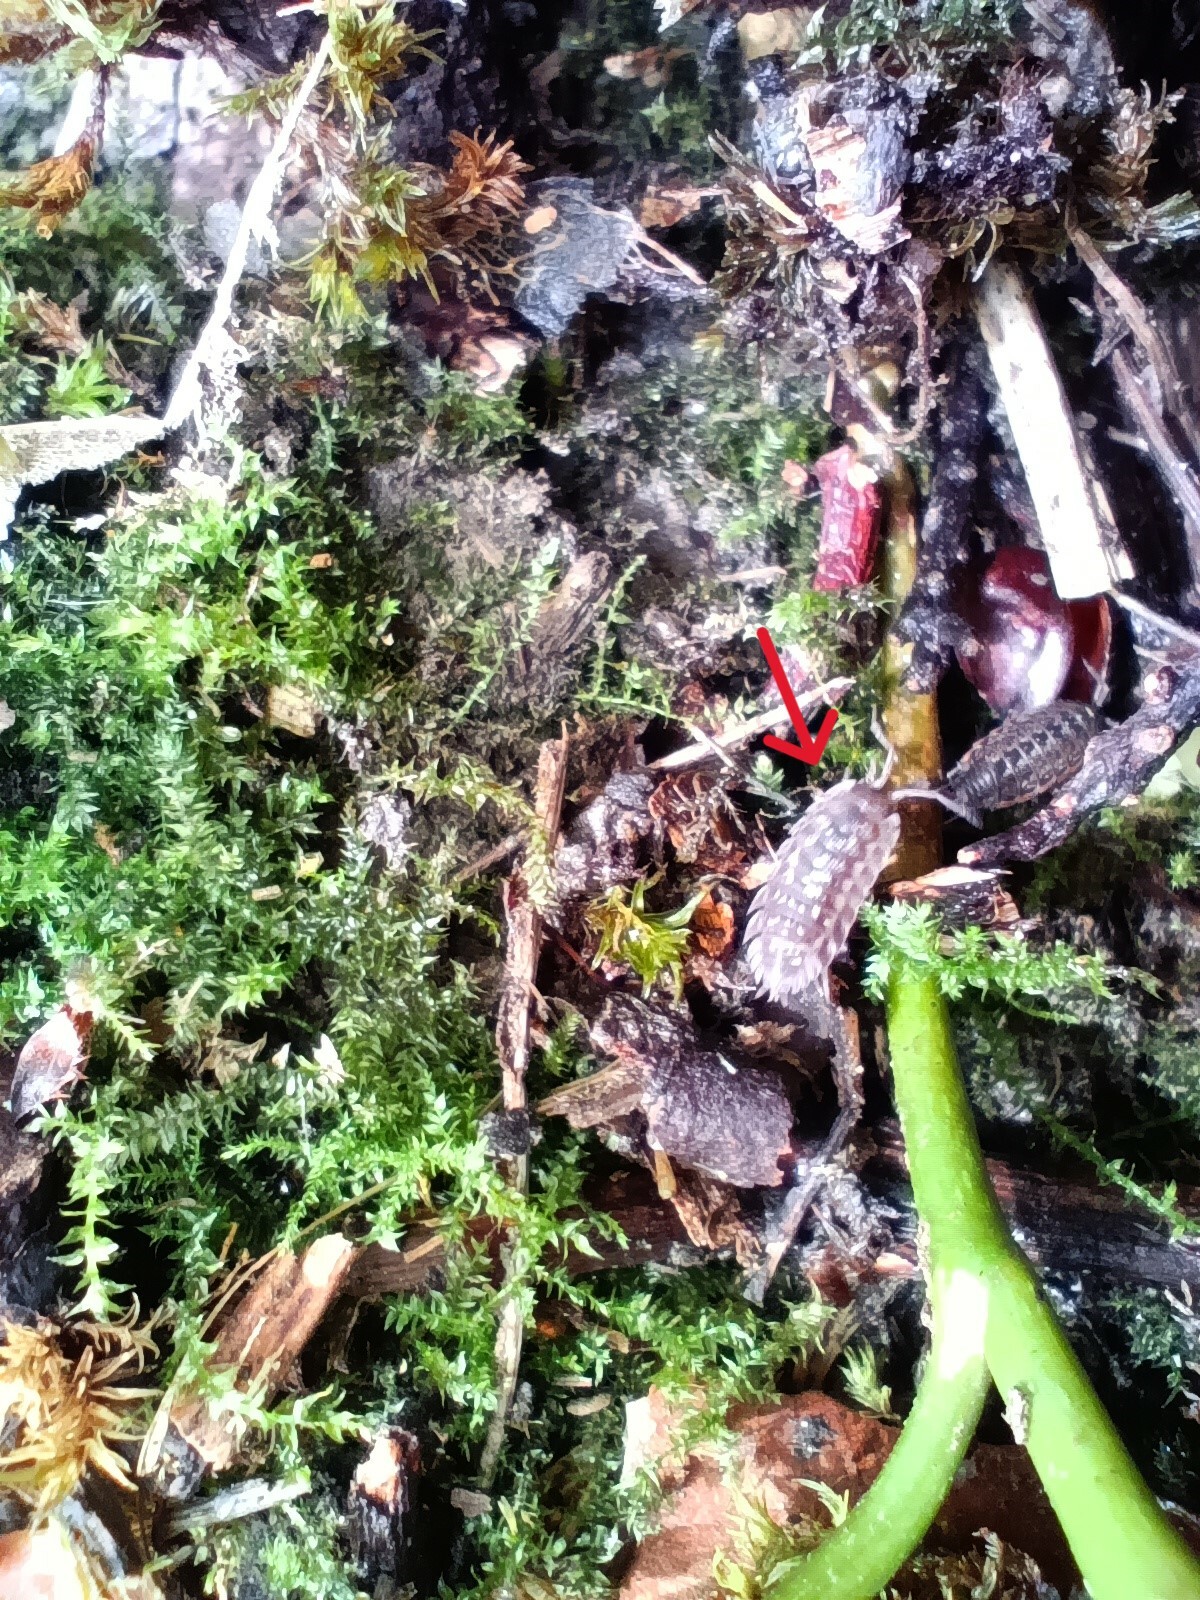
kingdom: Animalia
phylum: Arthropoda
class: Malacostraca
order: Isopoda
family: Oniscidae
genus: Oniscus
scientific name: Oniscus asellus
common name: Common shiny woodlouse
